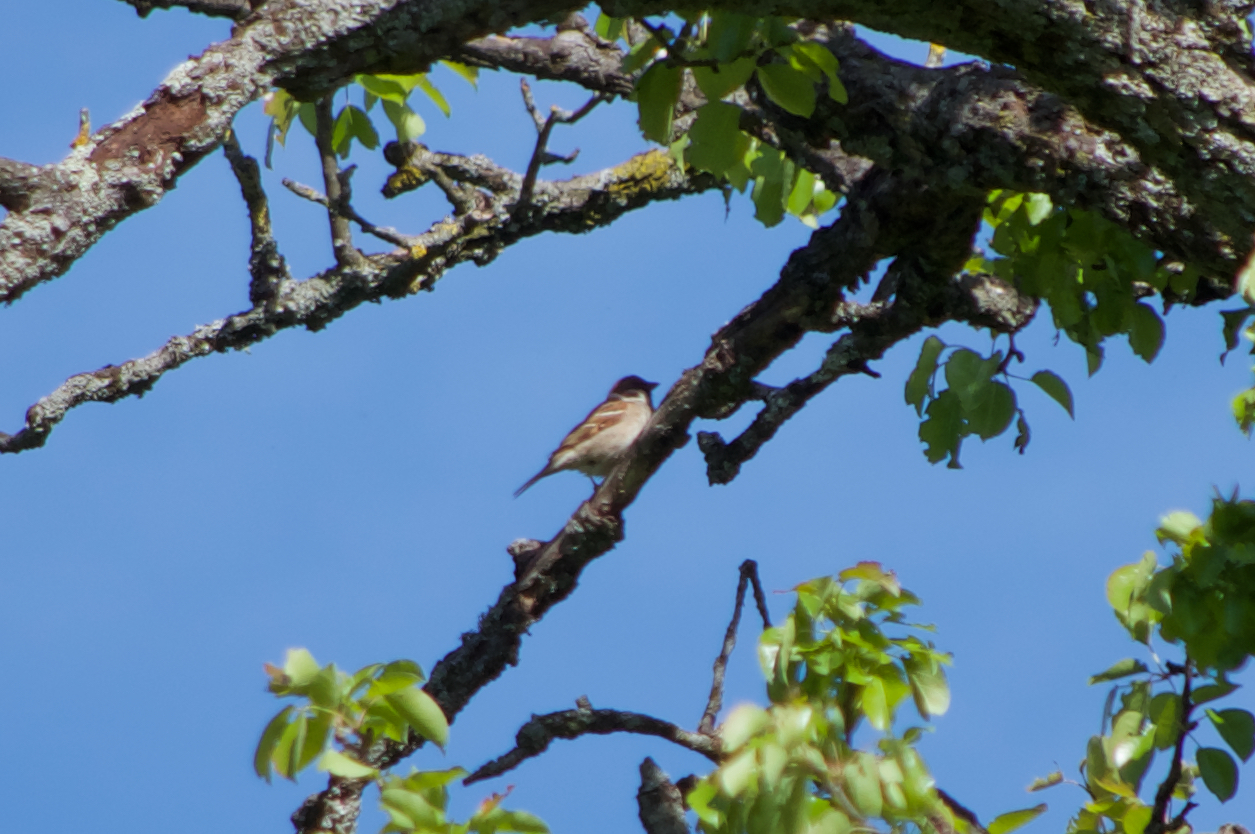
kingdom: Animalia
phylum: Chordata
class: Aves
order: Passeriformes
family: Passeridae
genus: Passer
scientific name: Passer montanus
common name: Eurasian tree sparrow
